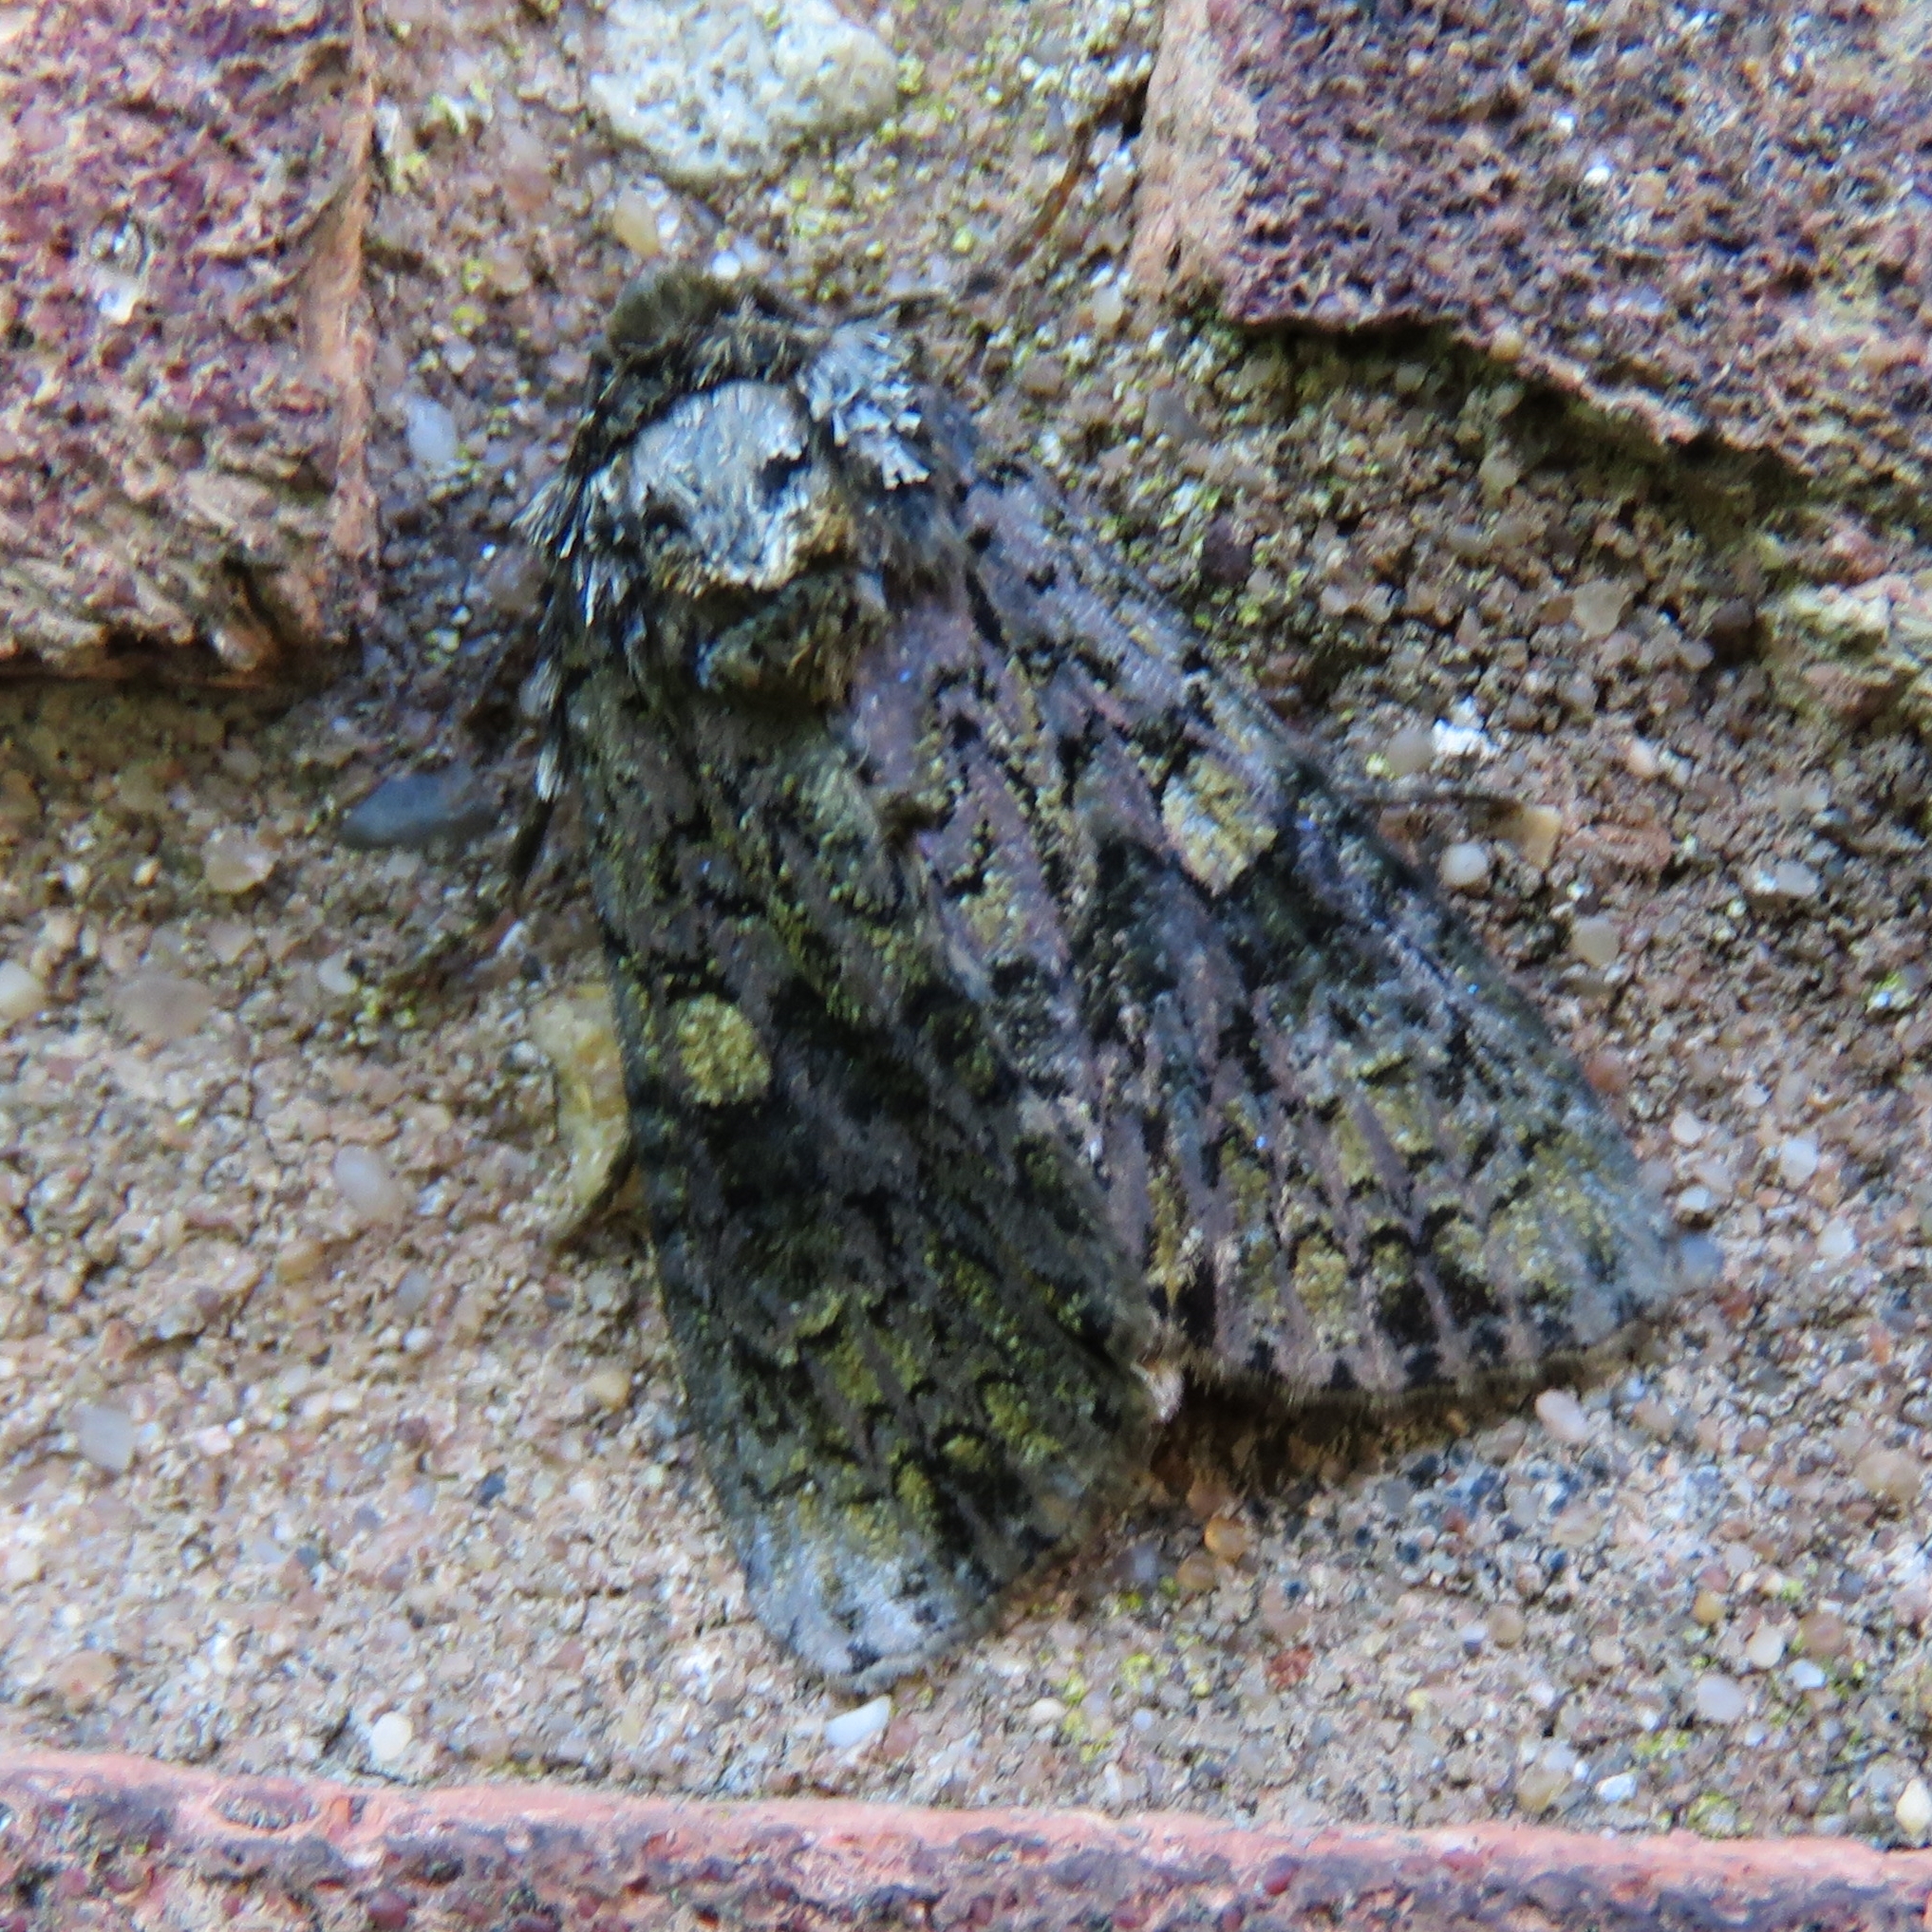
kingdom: Animalia
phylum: Arthropoda
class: Insecta
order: Lepidoptera
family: Noctuidae
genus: Craniophora
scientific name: Craniophora ligustri
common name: Coronet
